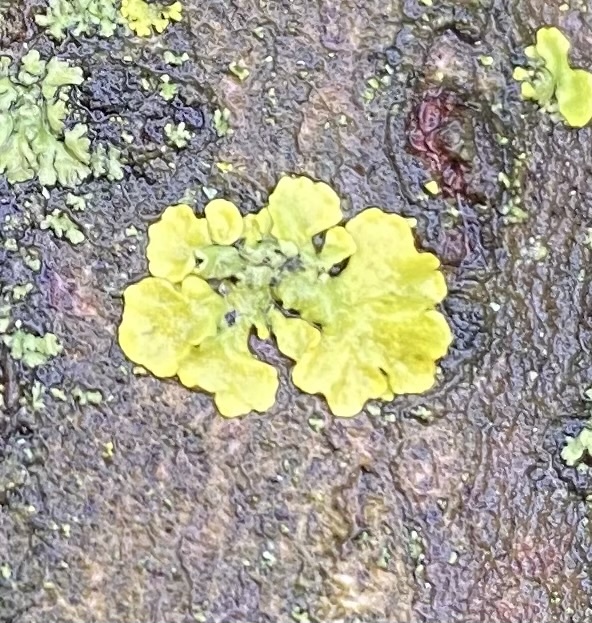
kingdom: Fungi
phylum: Ascomycota
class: Lecanoromycetes
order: Teloschistales
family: Teloschistaceae
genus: Xanthoria
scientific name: Xanthoria parietina
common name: Common orange lichen
